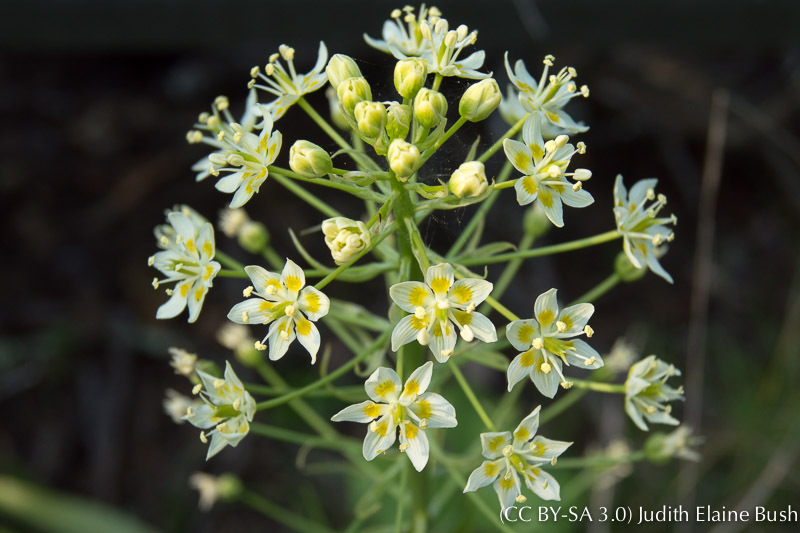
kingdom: Plantae
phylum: Tracheophyta
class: Liliopsida
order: Liliales
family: Melanthiaceae
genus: Toxicoscordion
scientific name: Toxicoscordion fremontii
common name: Fremont's death camas
